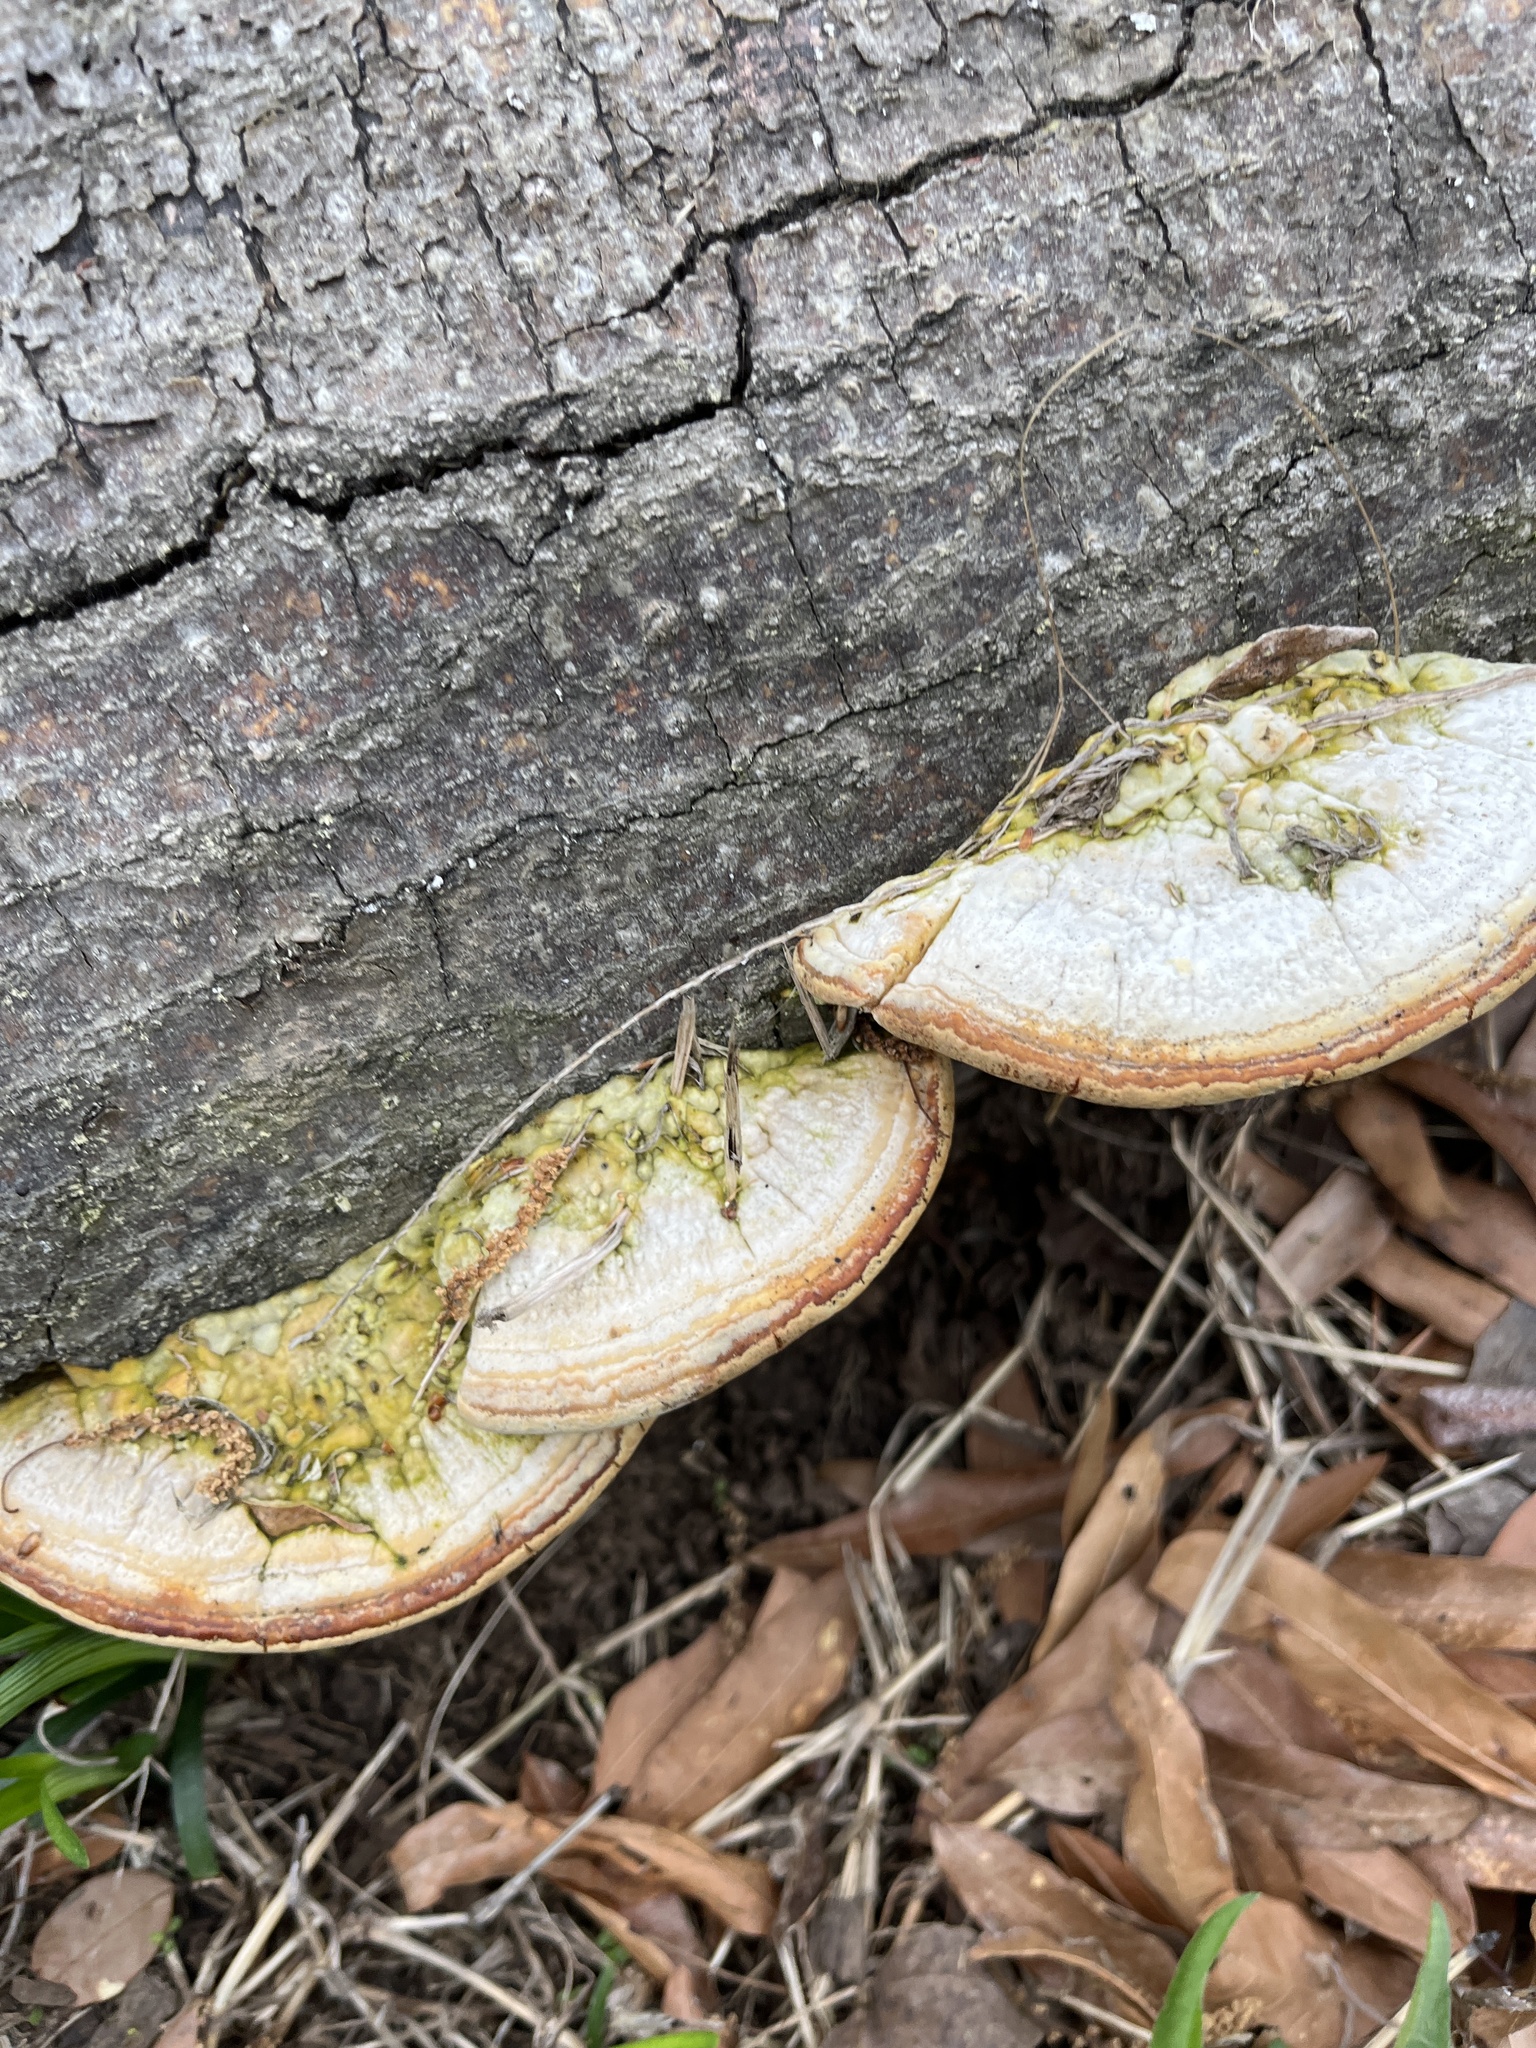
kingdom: Fungi
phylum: Basidiomycota
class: Agaricomycetes
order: Polyporales
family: Polyporaceae
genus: Trametes
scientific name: Trametes lactinea
